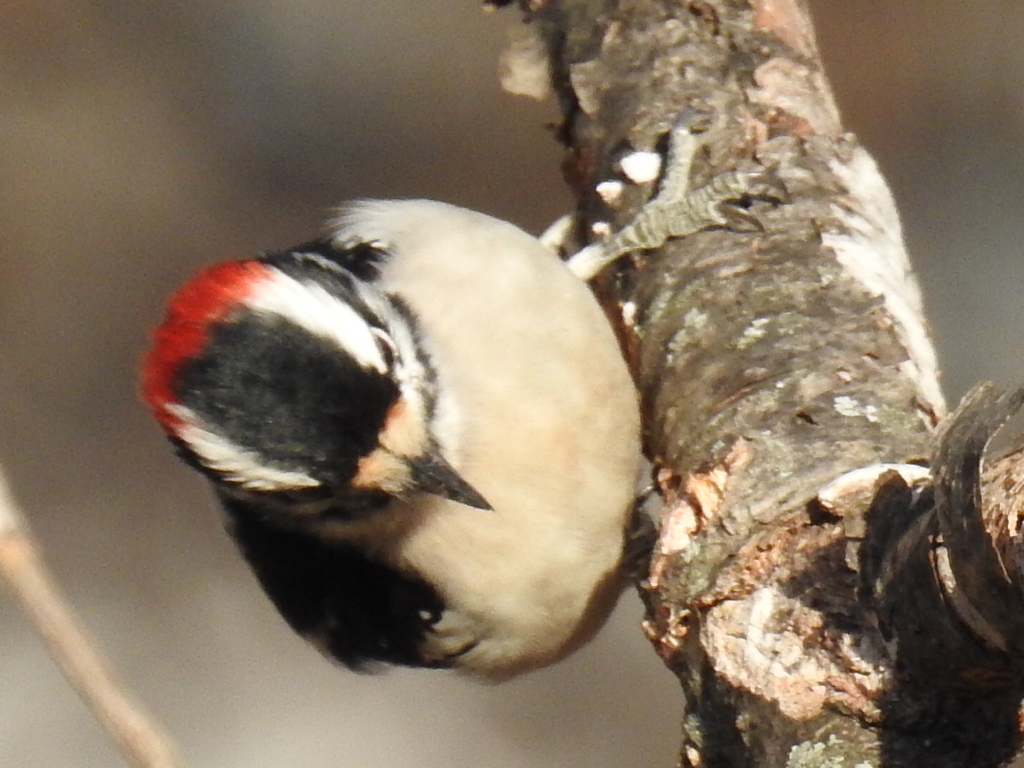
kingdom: Animalia
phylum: Chordata
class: Aves
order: Piciformes
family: Picidae
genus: Dryobates
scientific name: Dryobates pubescens
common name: Downy woodpecker
